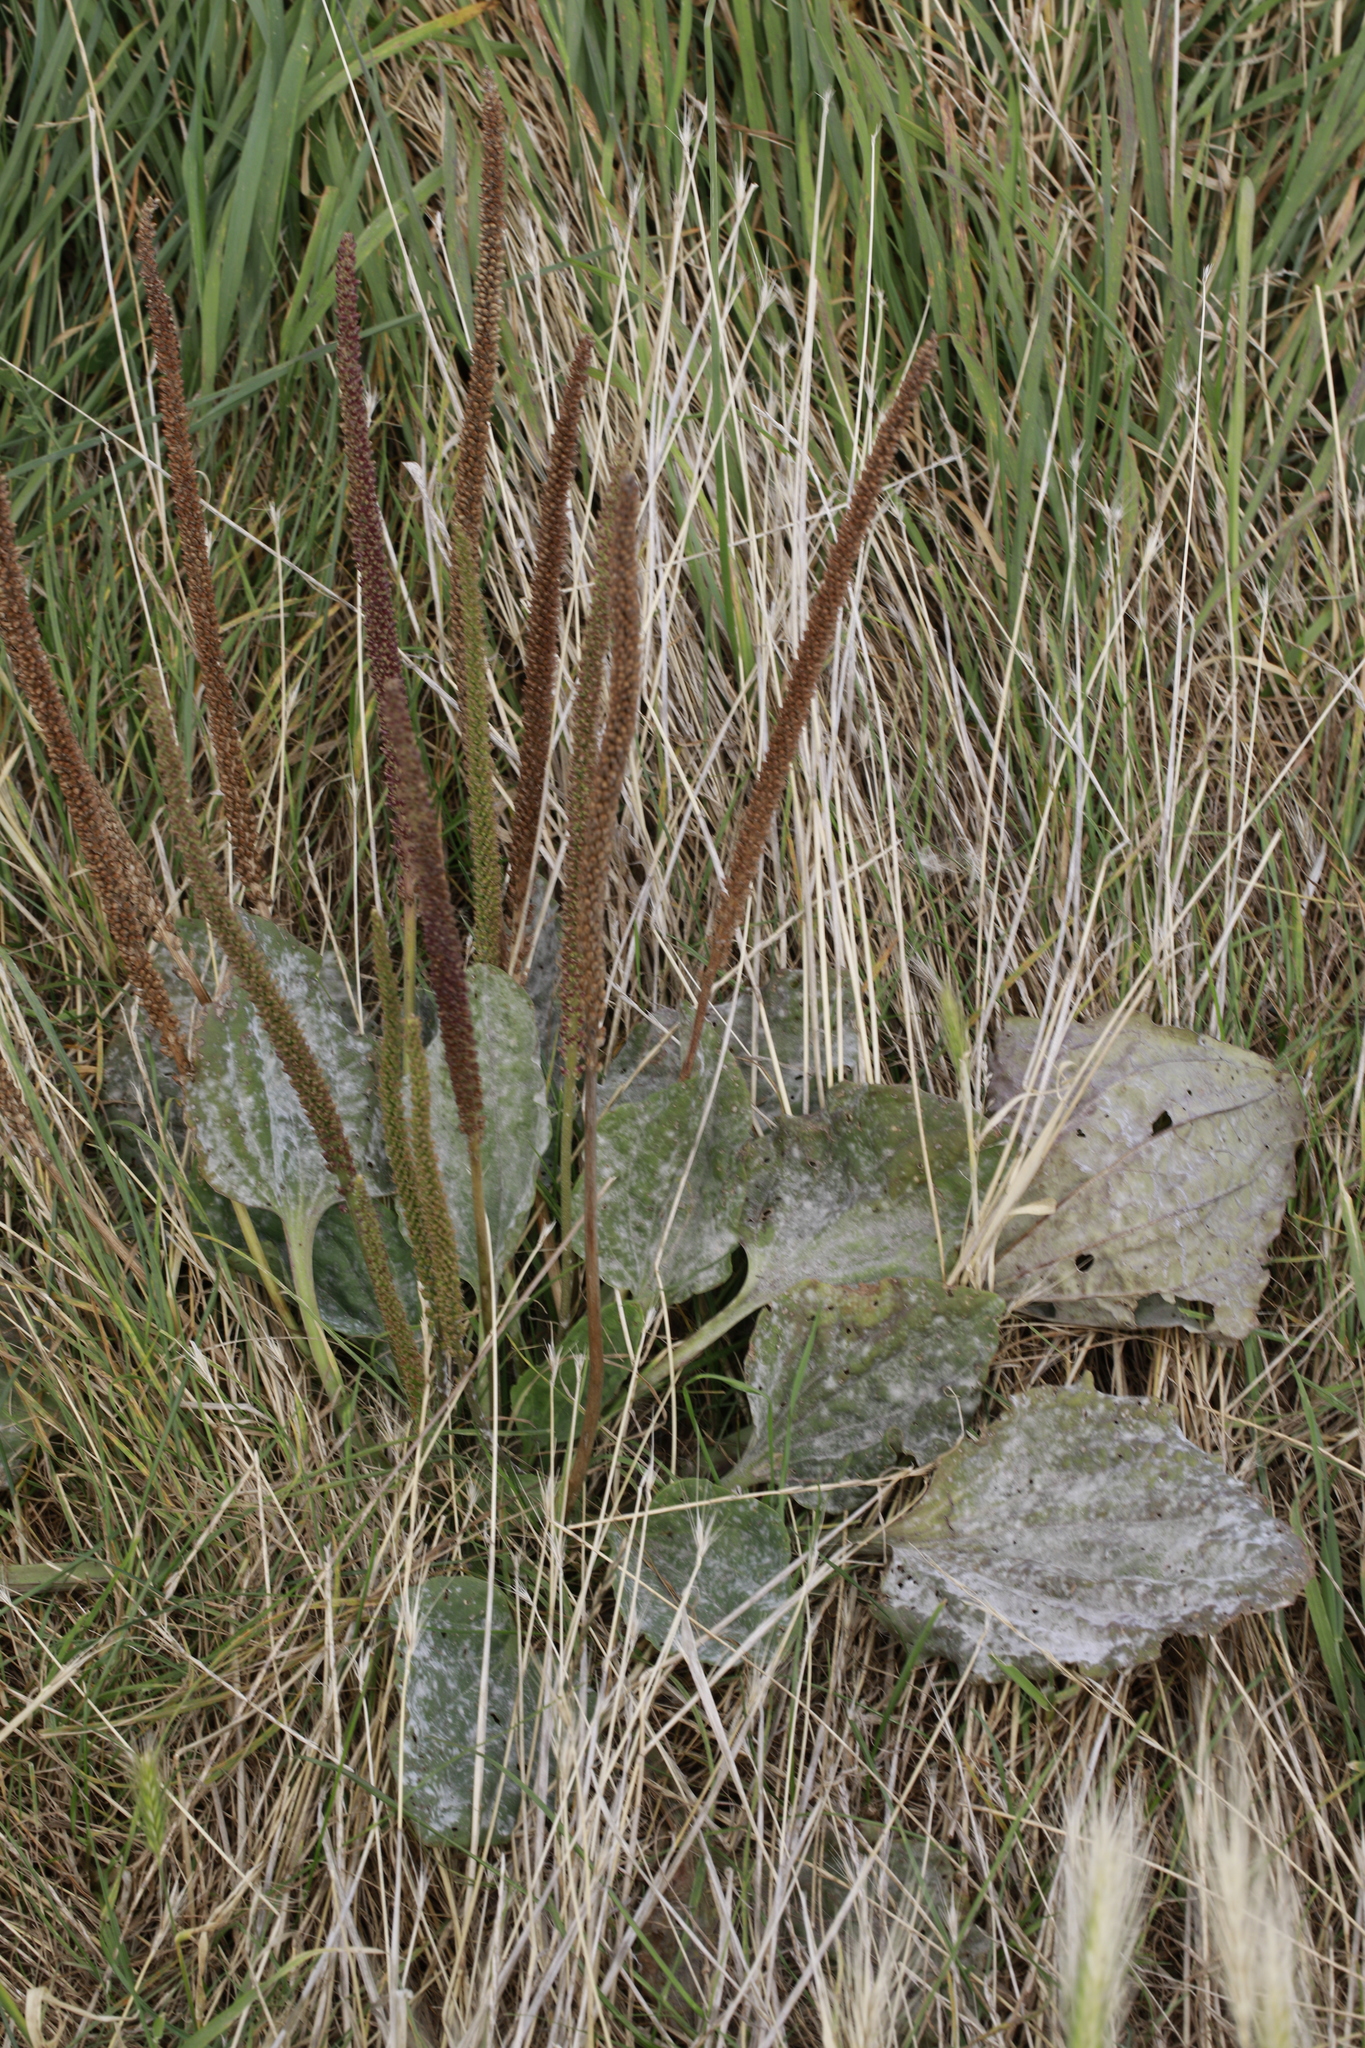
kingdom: Plantae
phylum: Tracheophyta
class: Magnoliopsida
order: Lamiales
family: Plantaginaceae
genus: Plantago
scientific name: Plantago major
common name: Common plantain
